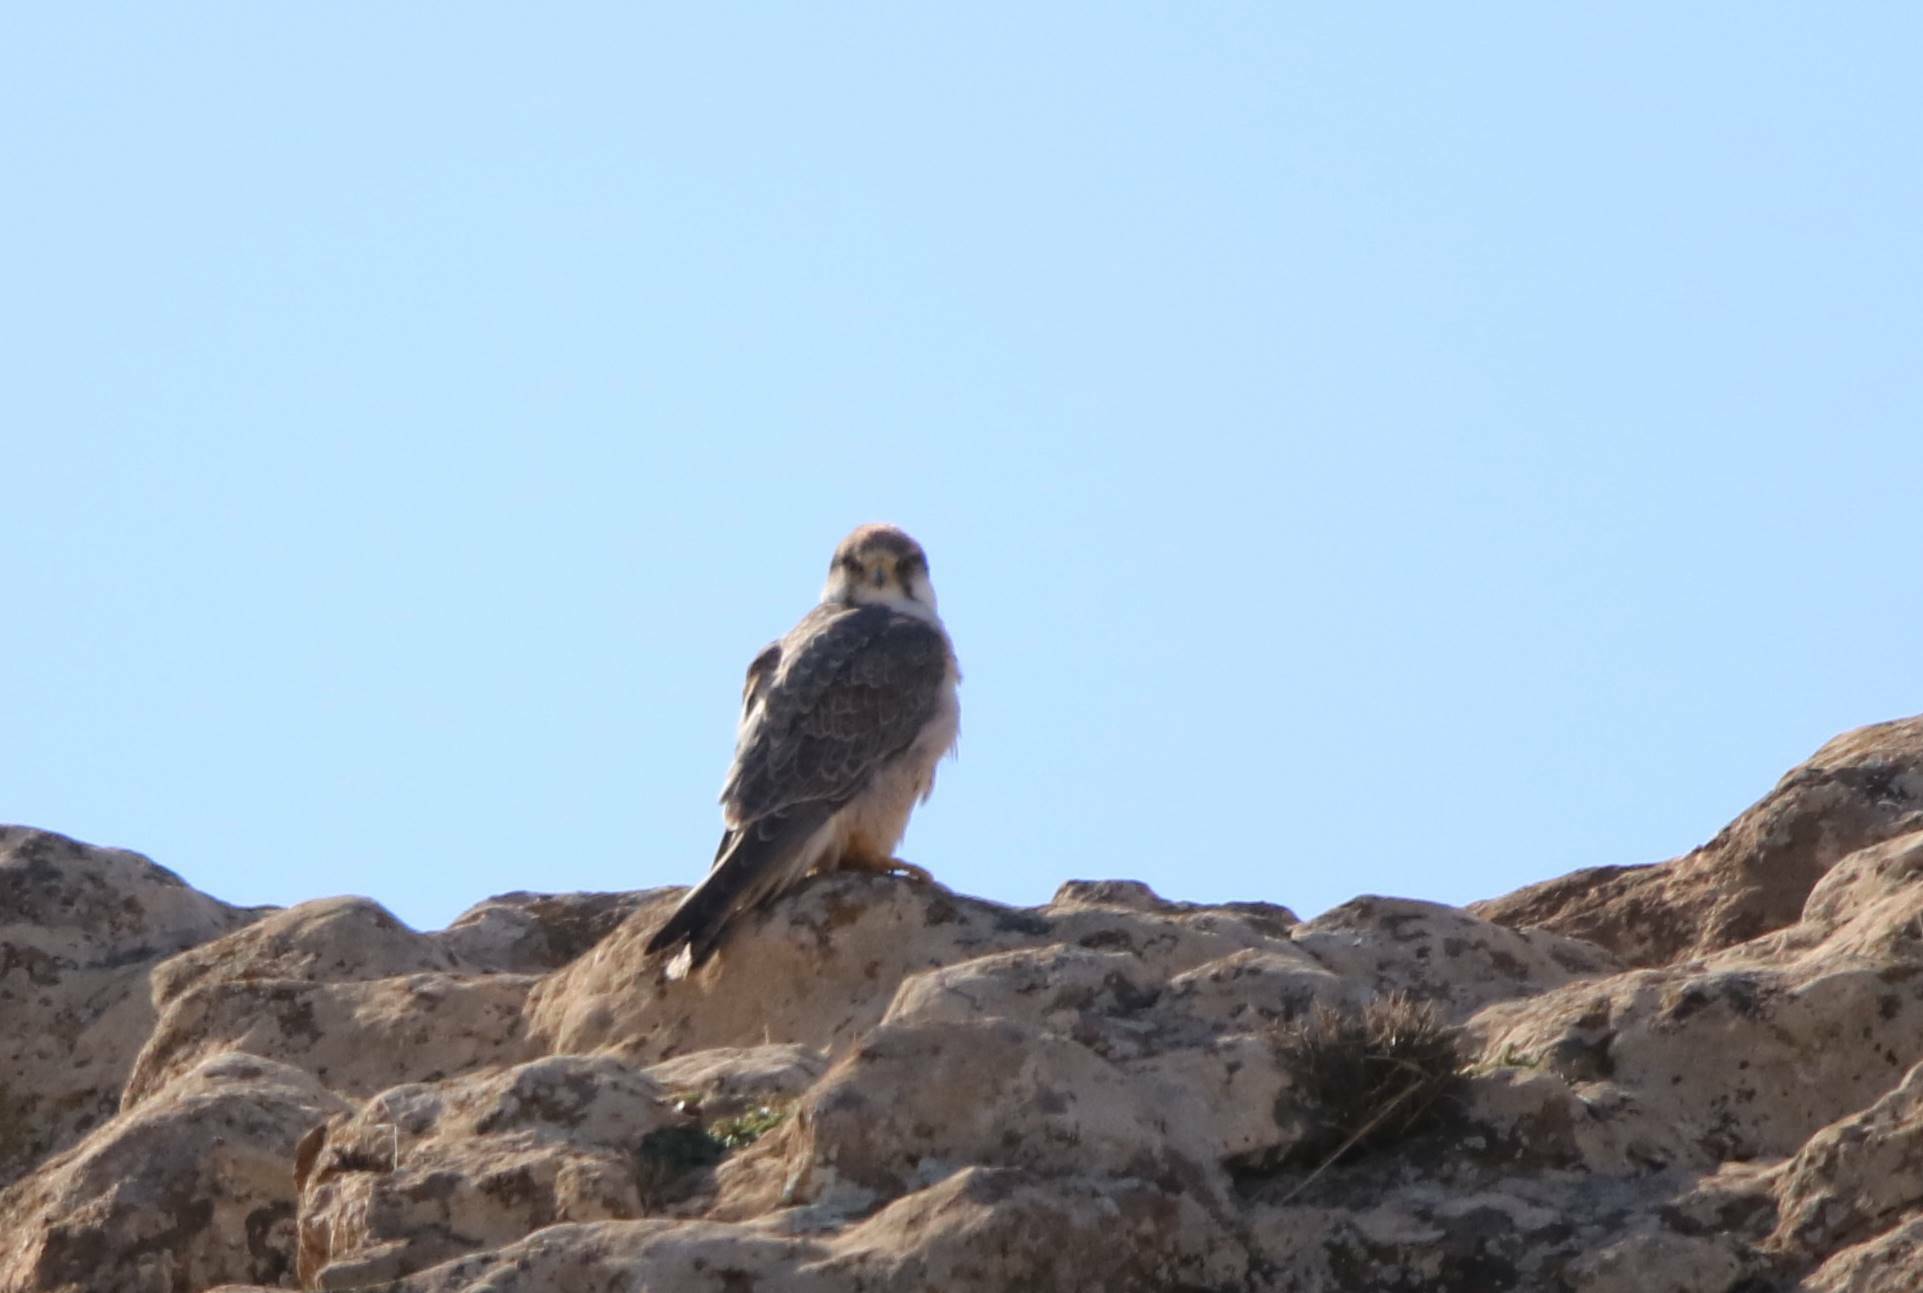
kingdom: Animalia
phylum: Chordata
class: Aves
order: Falconiformes
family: Falconidae
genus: Falco
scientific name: Falco biarmicus
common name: Lanner falcon
